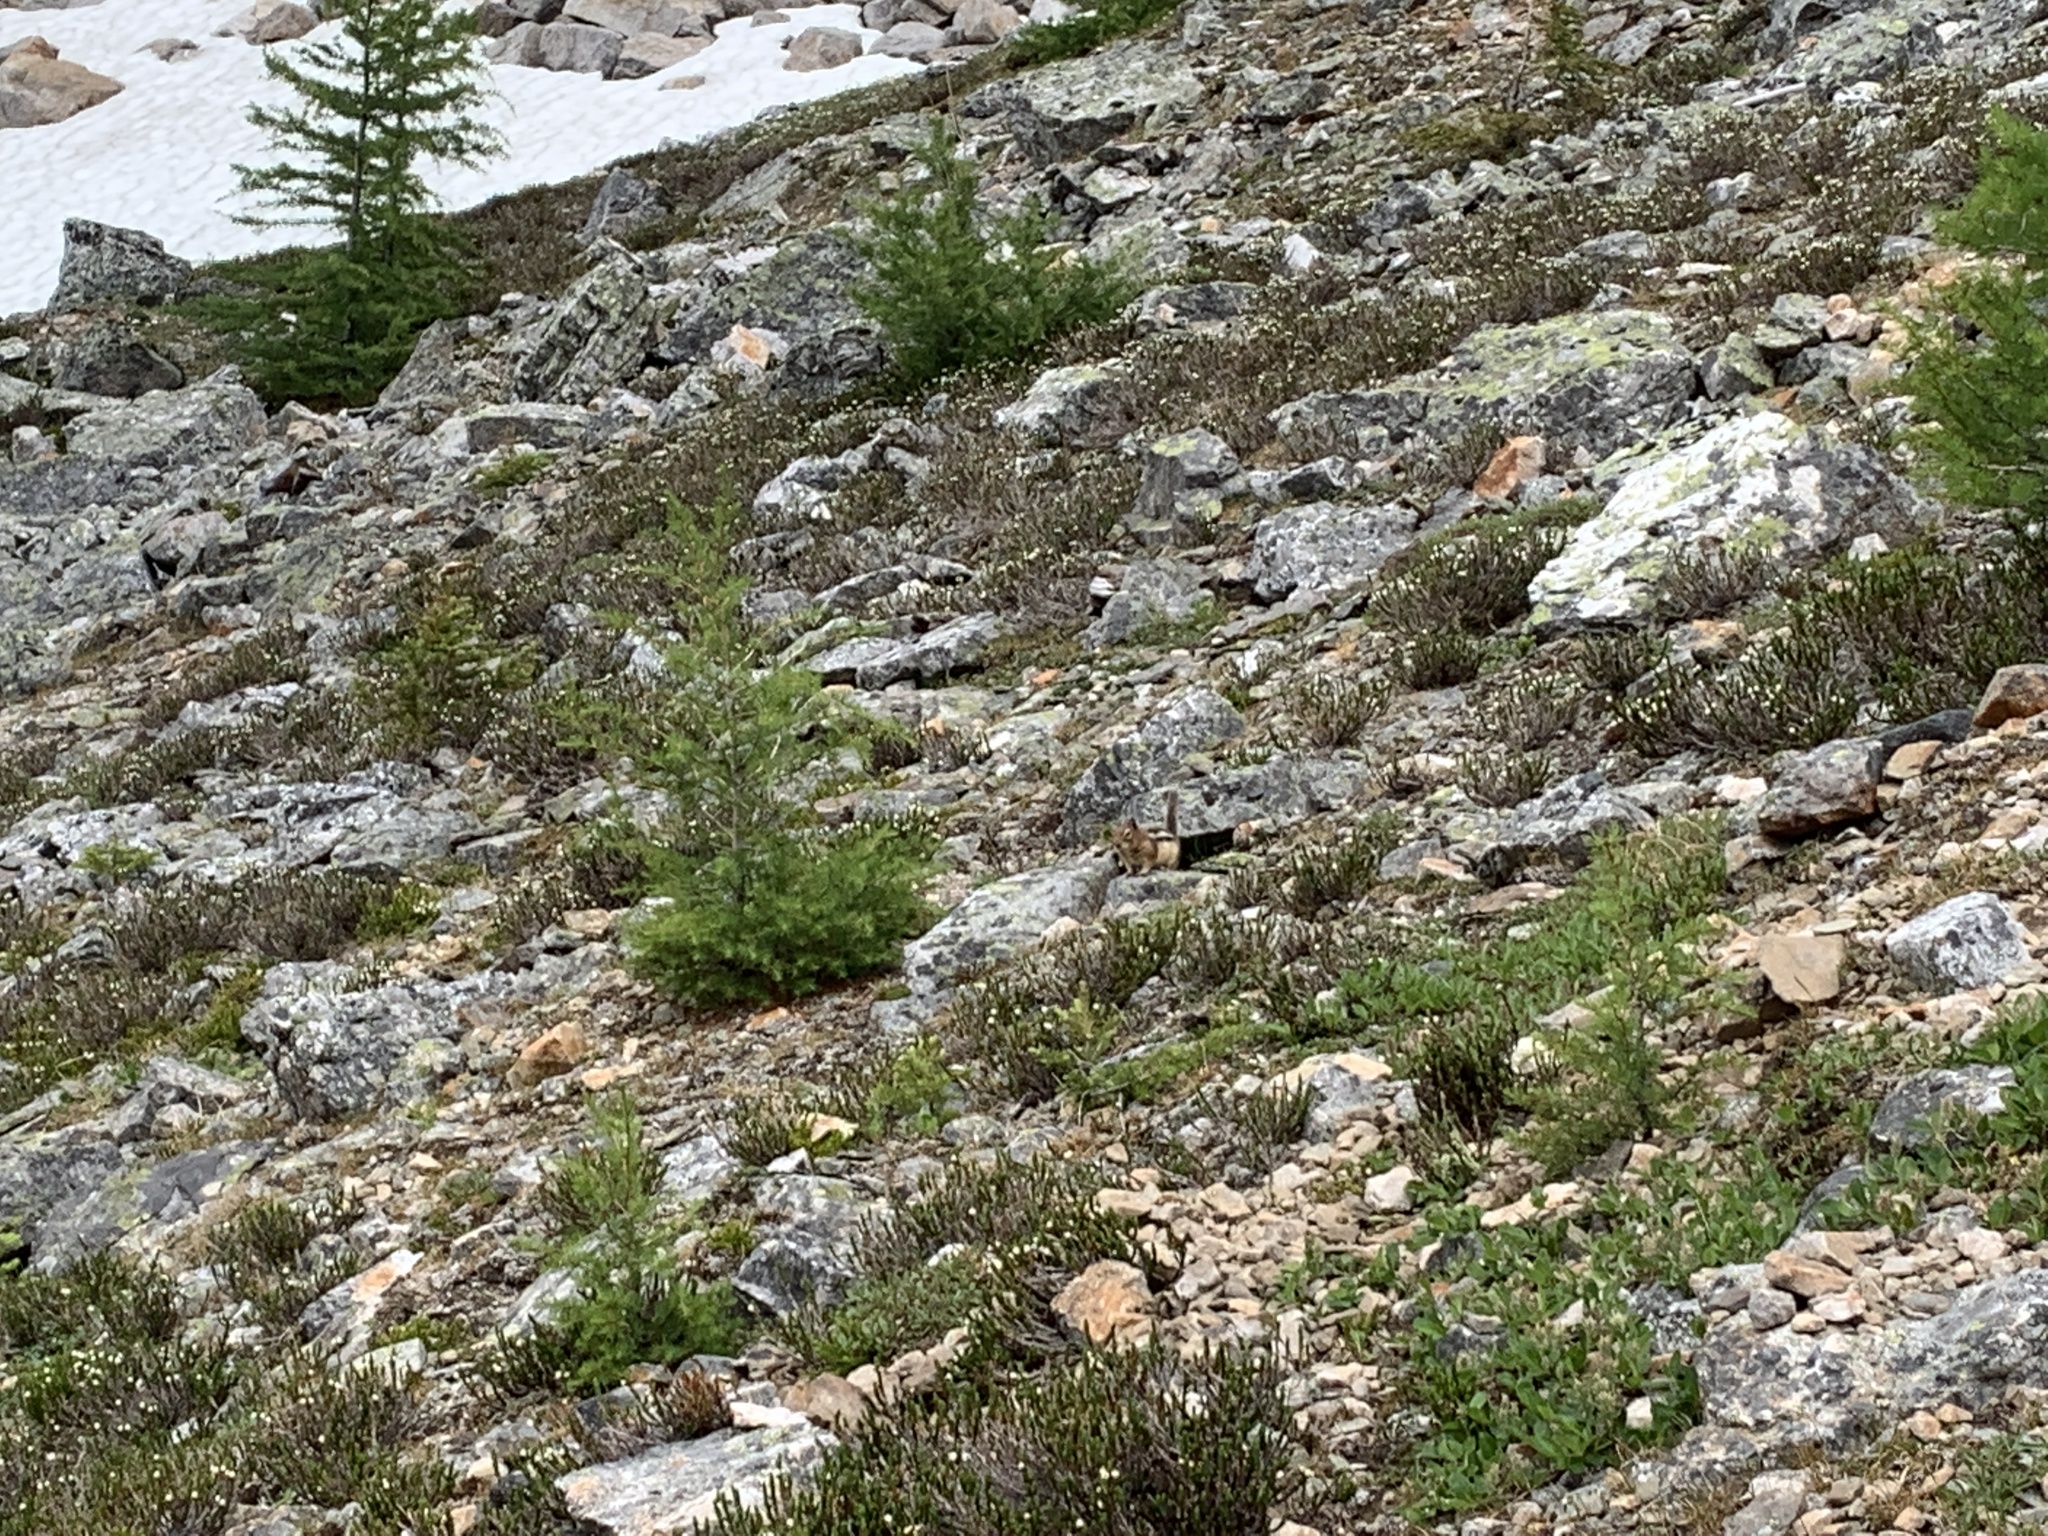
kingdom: Animalia
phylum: Chordata
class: Mammalia
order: Rodentia
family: Sciuridae
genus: Callospermophilus
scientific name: Callospermophilus lateralis
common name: Golden-mantled ground squirrel
